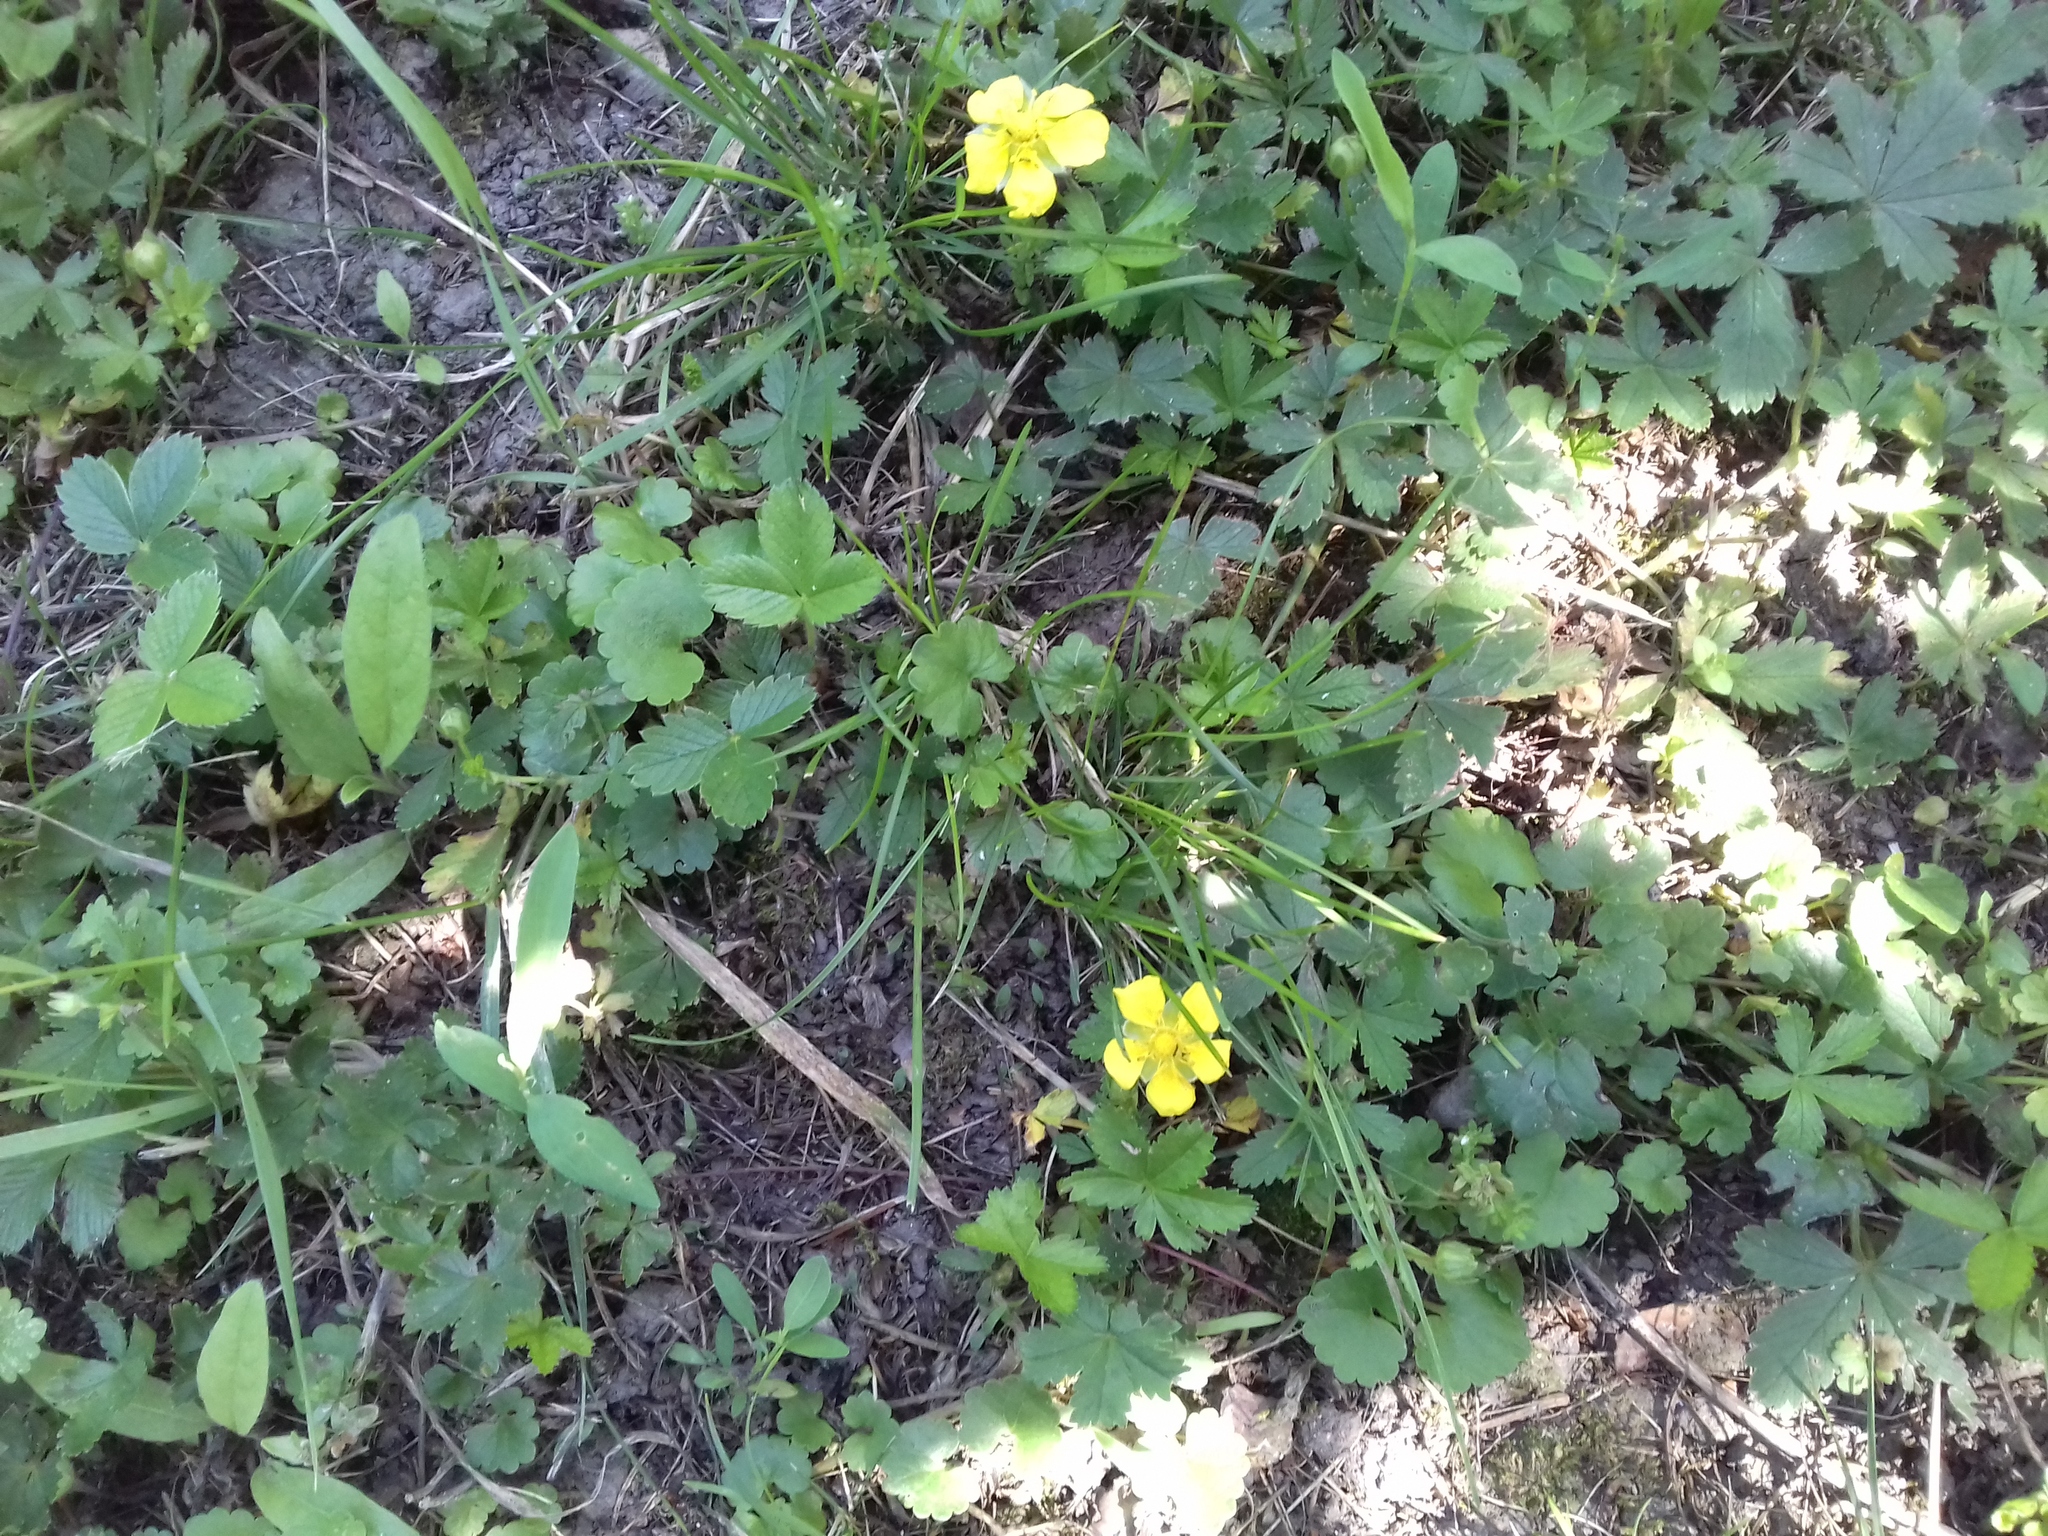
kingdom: Plantae
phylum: Tracheophyta
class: Magnoliopsida
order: Rosales
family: Rosaceae
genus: Potentilla
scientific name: Potentilla reptans
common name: Creeping cinquefoil
